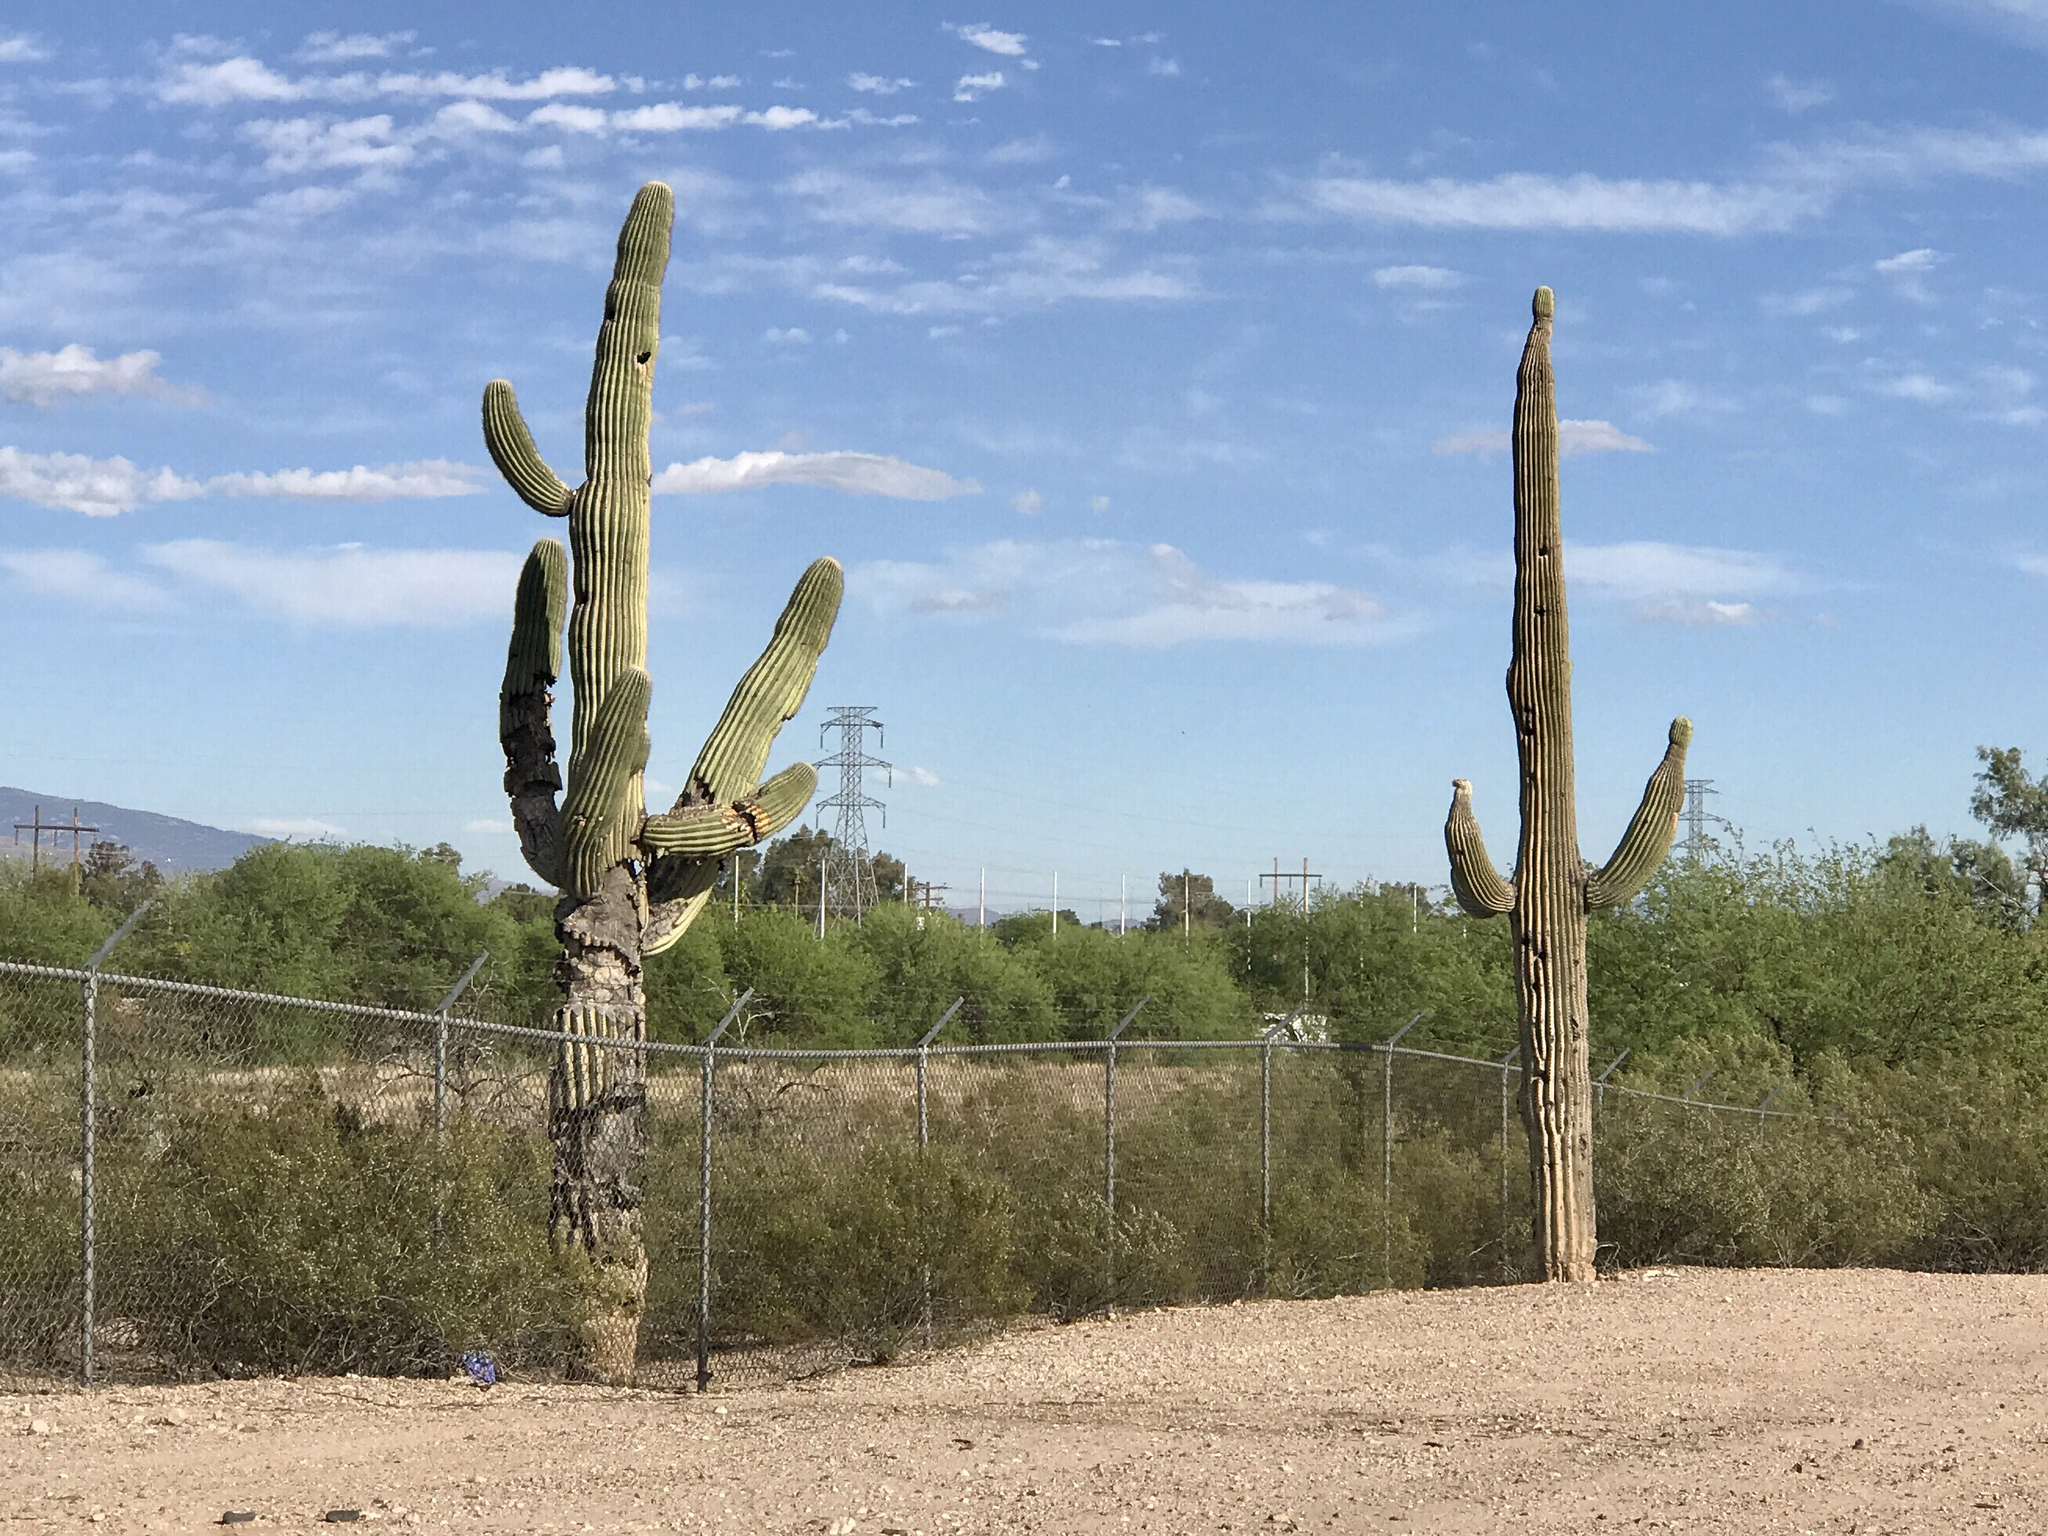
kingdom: Plantae
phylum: Tracheophyta
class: Magnoliopsida
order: Caryophyllales
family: Cactaceae
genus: Carnegiea
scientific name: Carnegiea gigantea
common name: Saguaro
